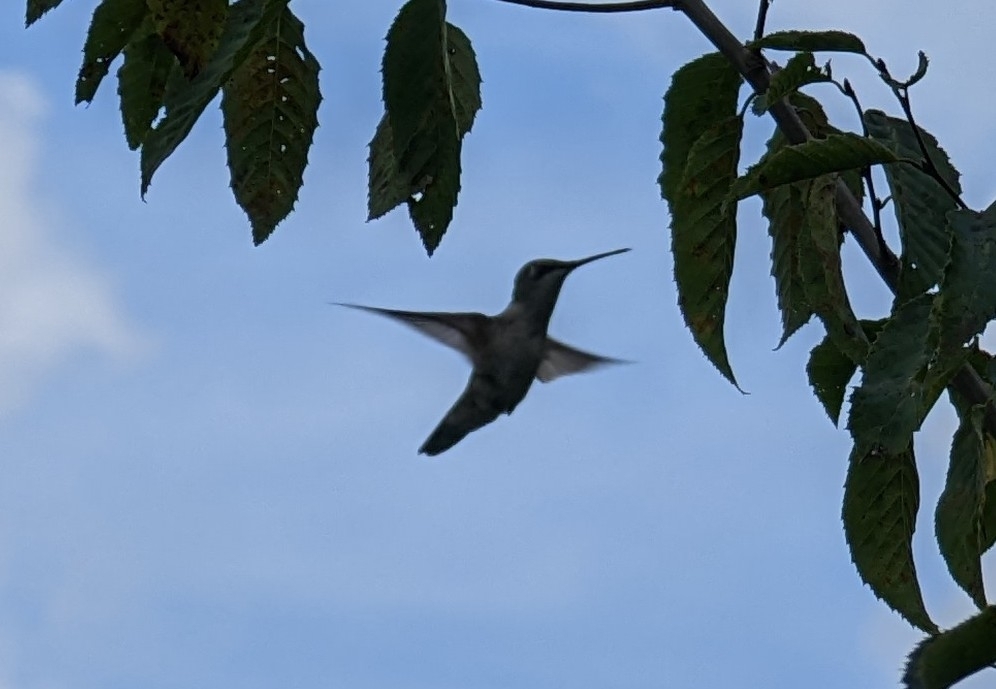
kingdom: Animalia
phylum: Chordata
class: Aves
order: Apodiformes
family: Trochilidae
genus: Archilochus
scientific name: Archilochus colubris
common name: Ruby-throated hummingbird
